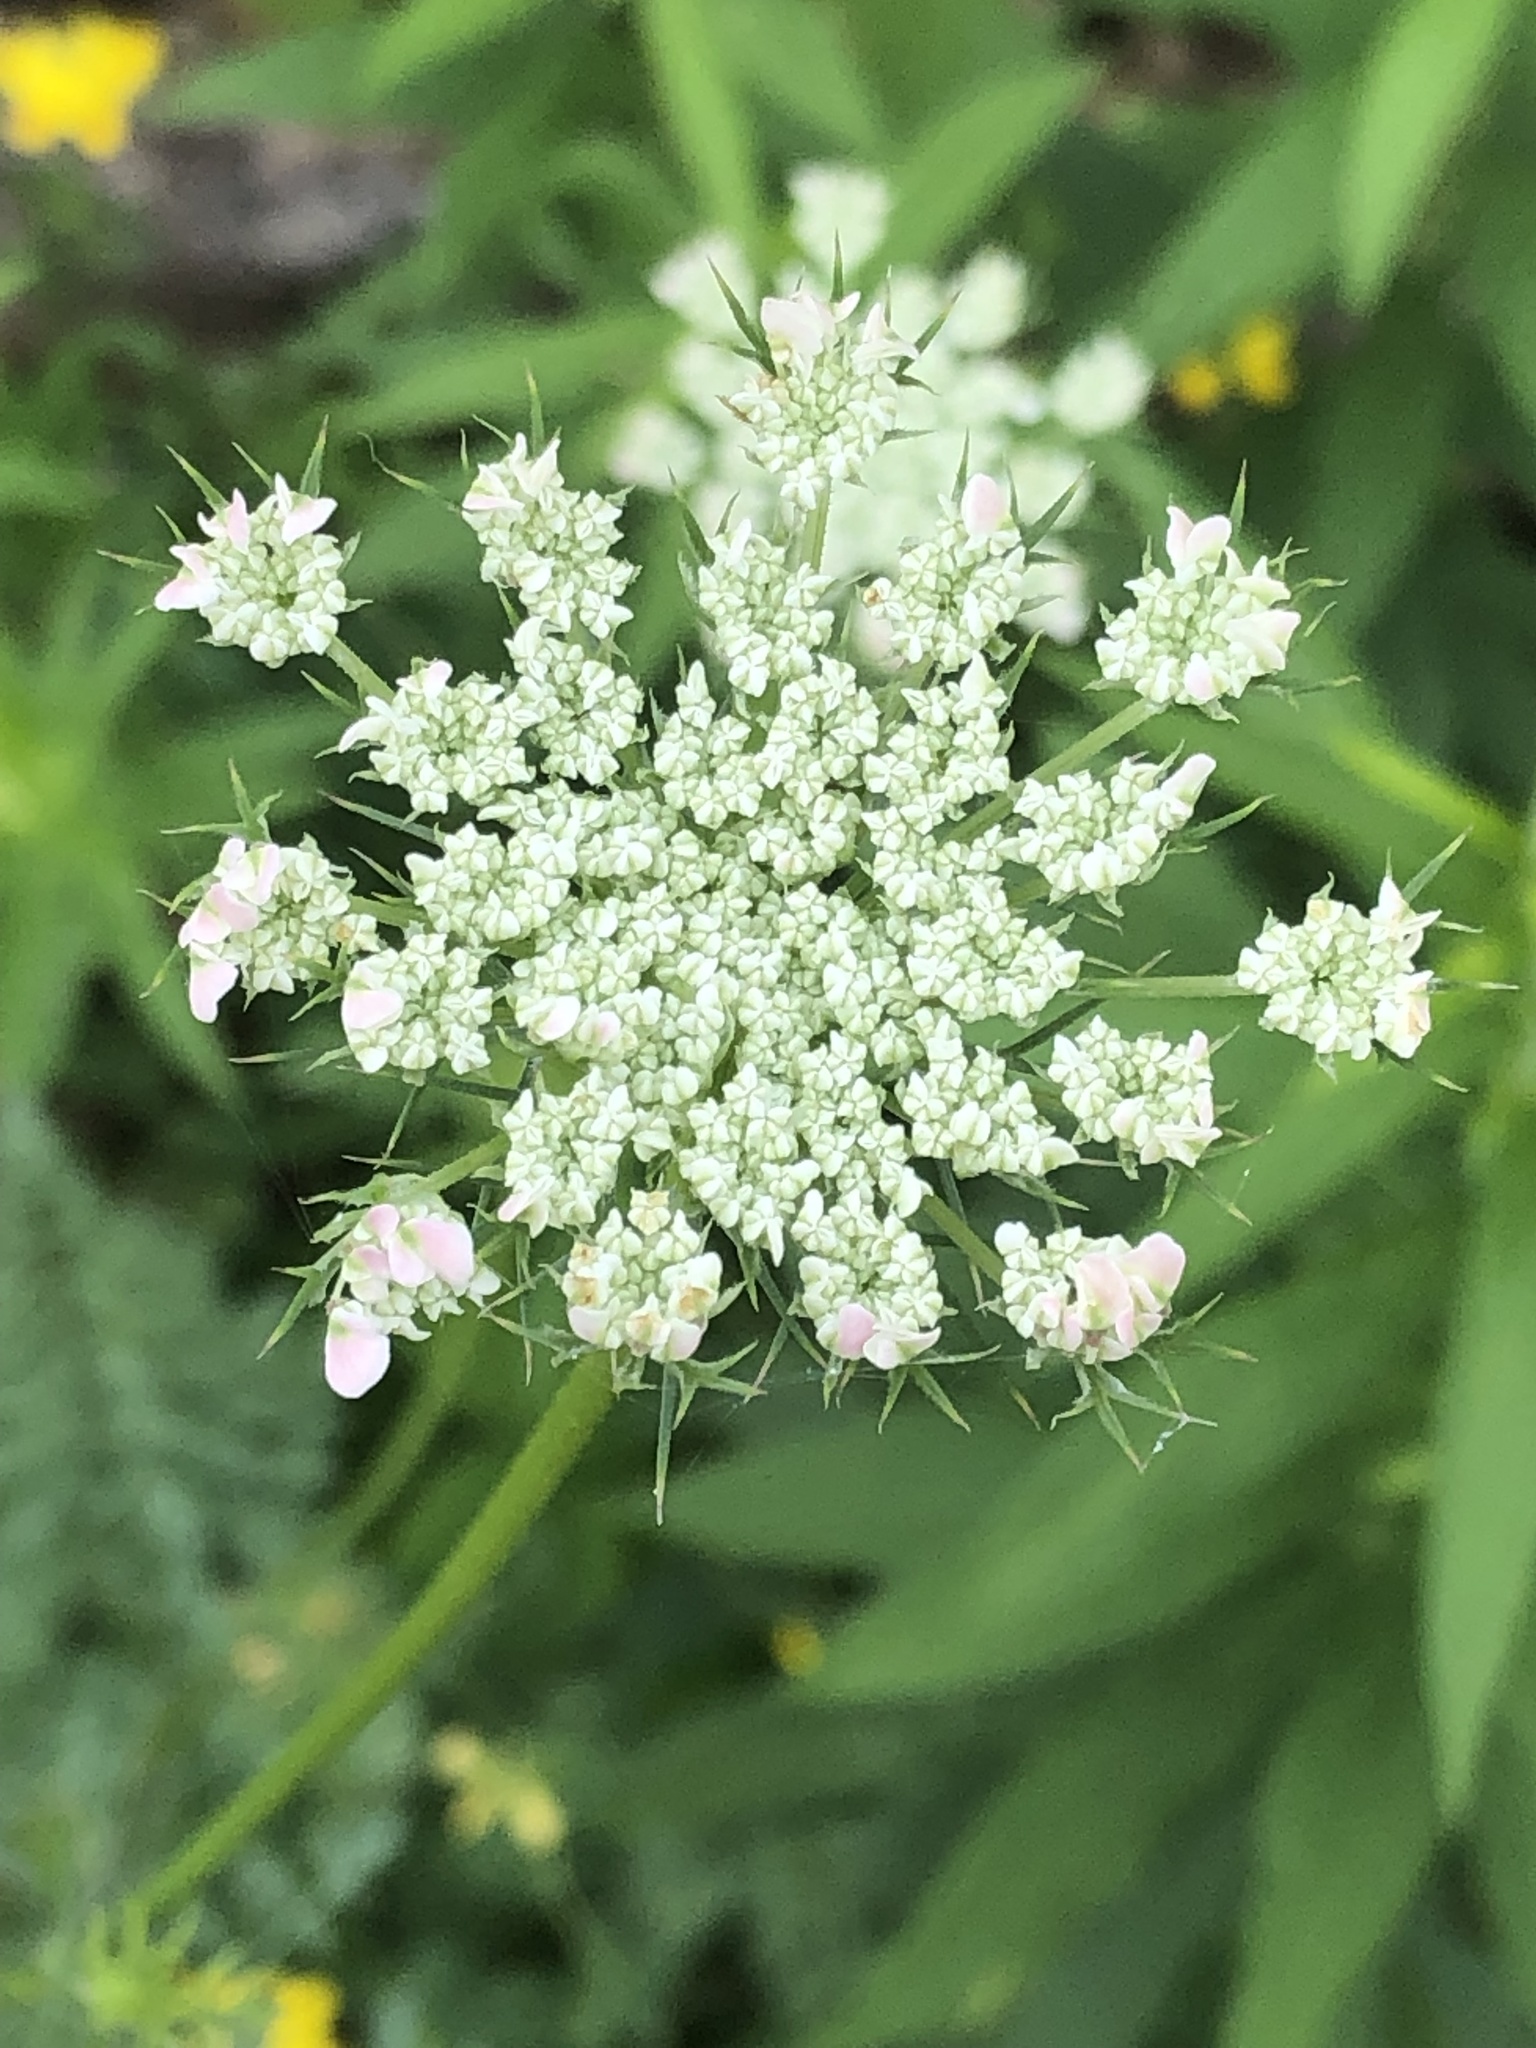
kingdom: Plantae
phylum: Tracheophyta
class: Magnoliopsida
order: Apiales
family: Apiaceae
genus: Daucus
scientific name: Daucus carota
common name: Wild carrot
